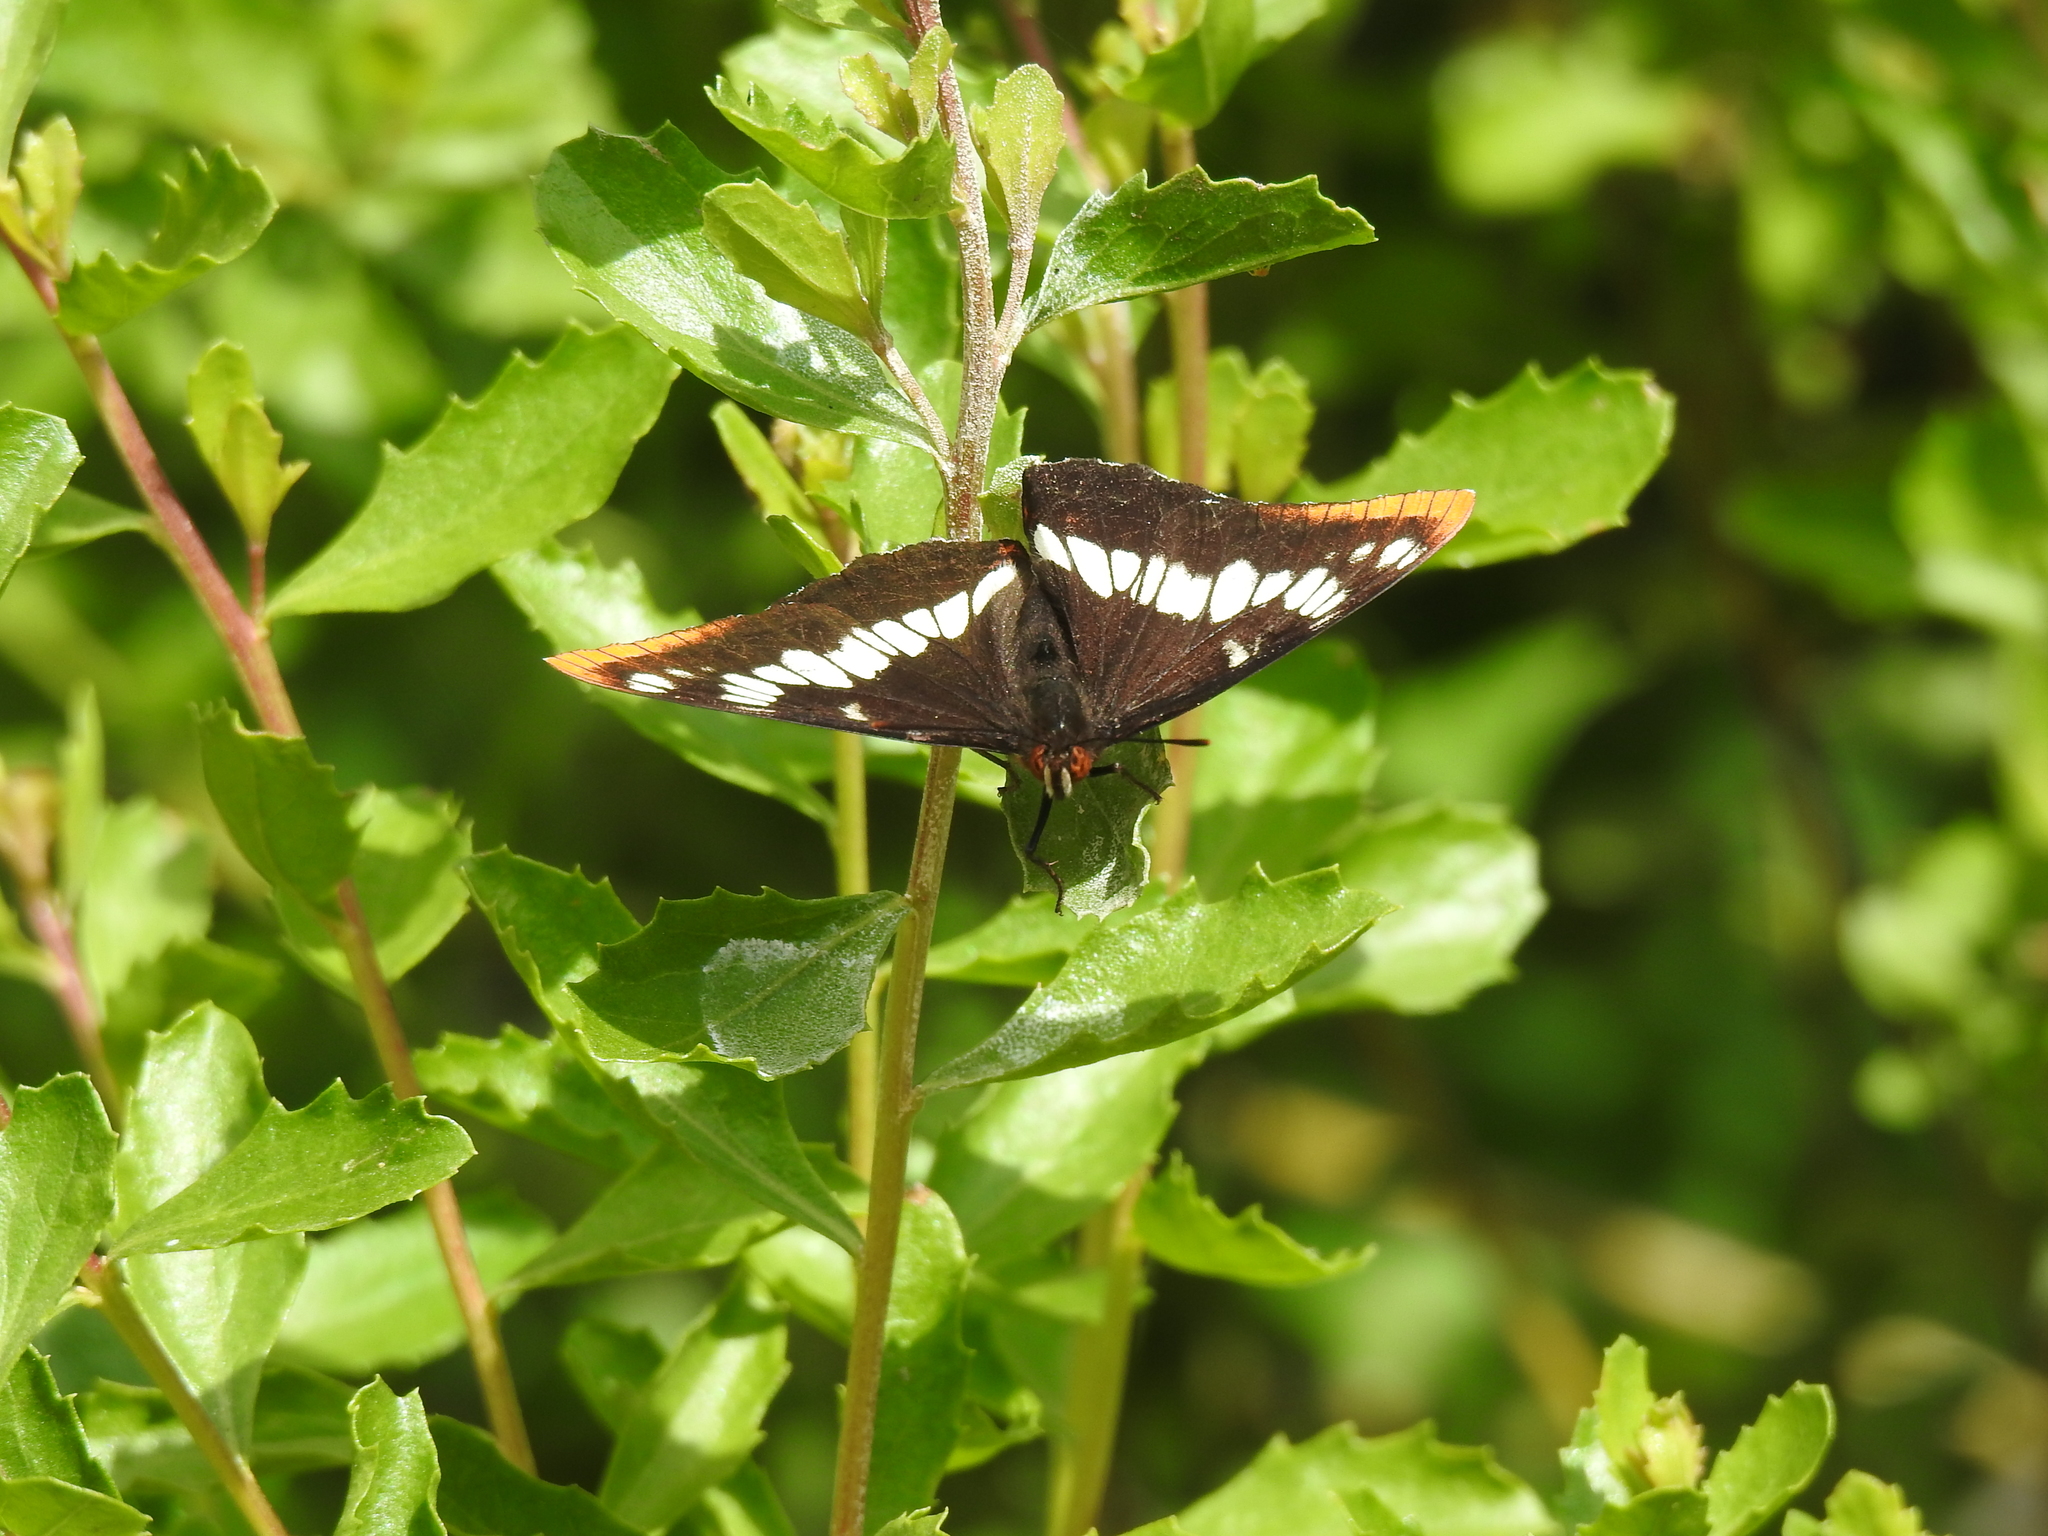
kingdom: Animalia
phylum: Arthropoda
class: Insecta
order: Lepidoptera
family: Nymphalidae
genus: Limenitis
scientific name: Limenitis lorquini
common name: Lorquin's admiral
